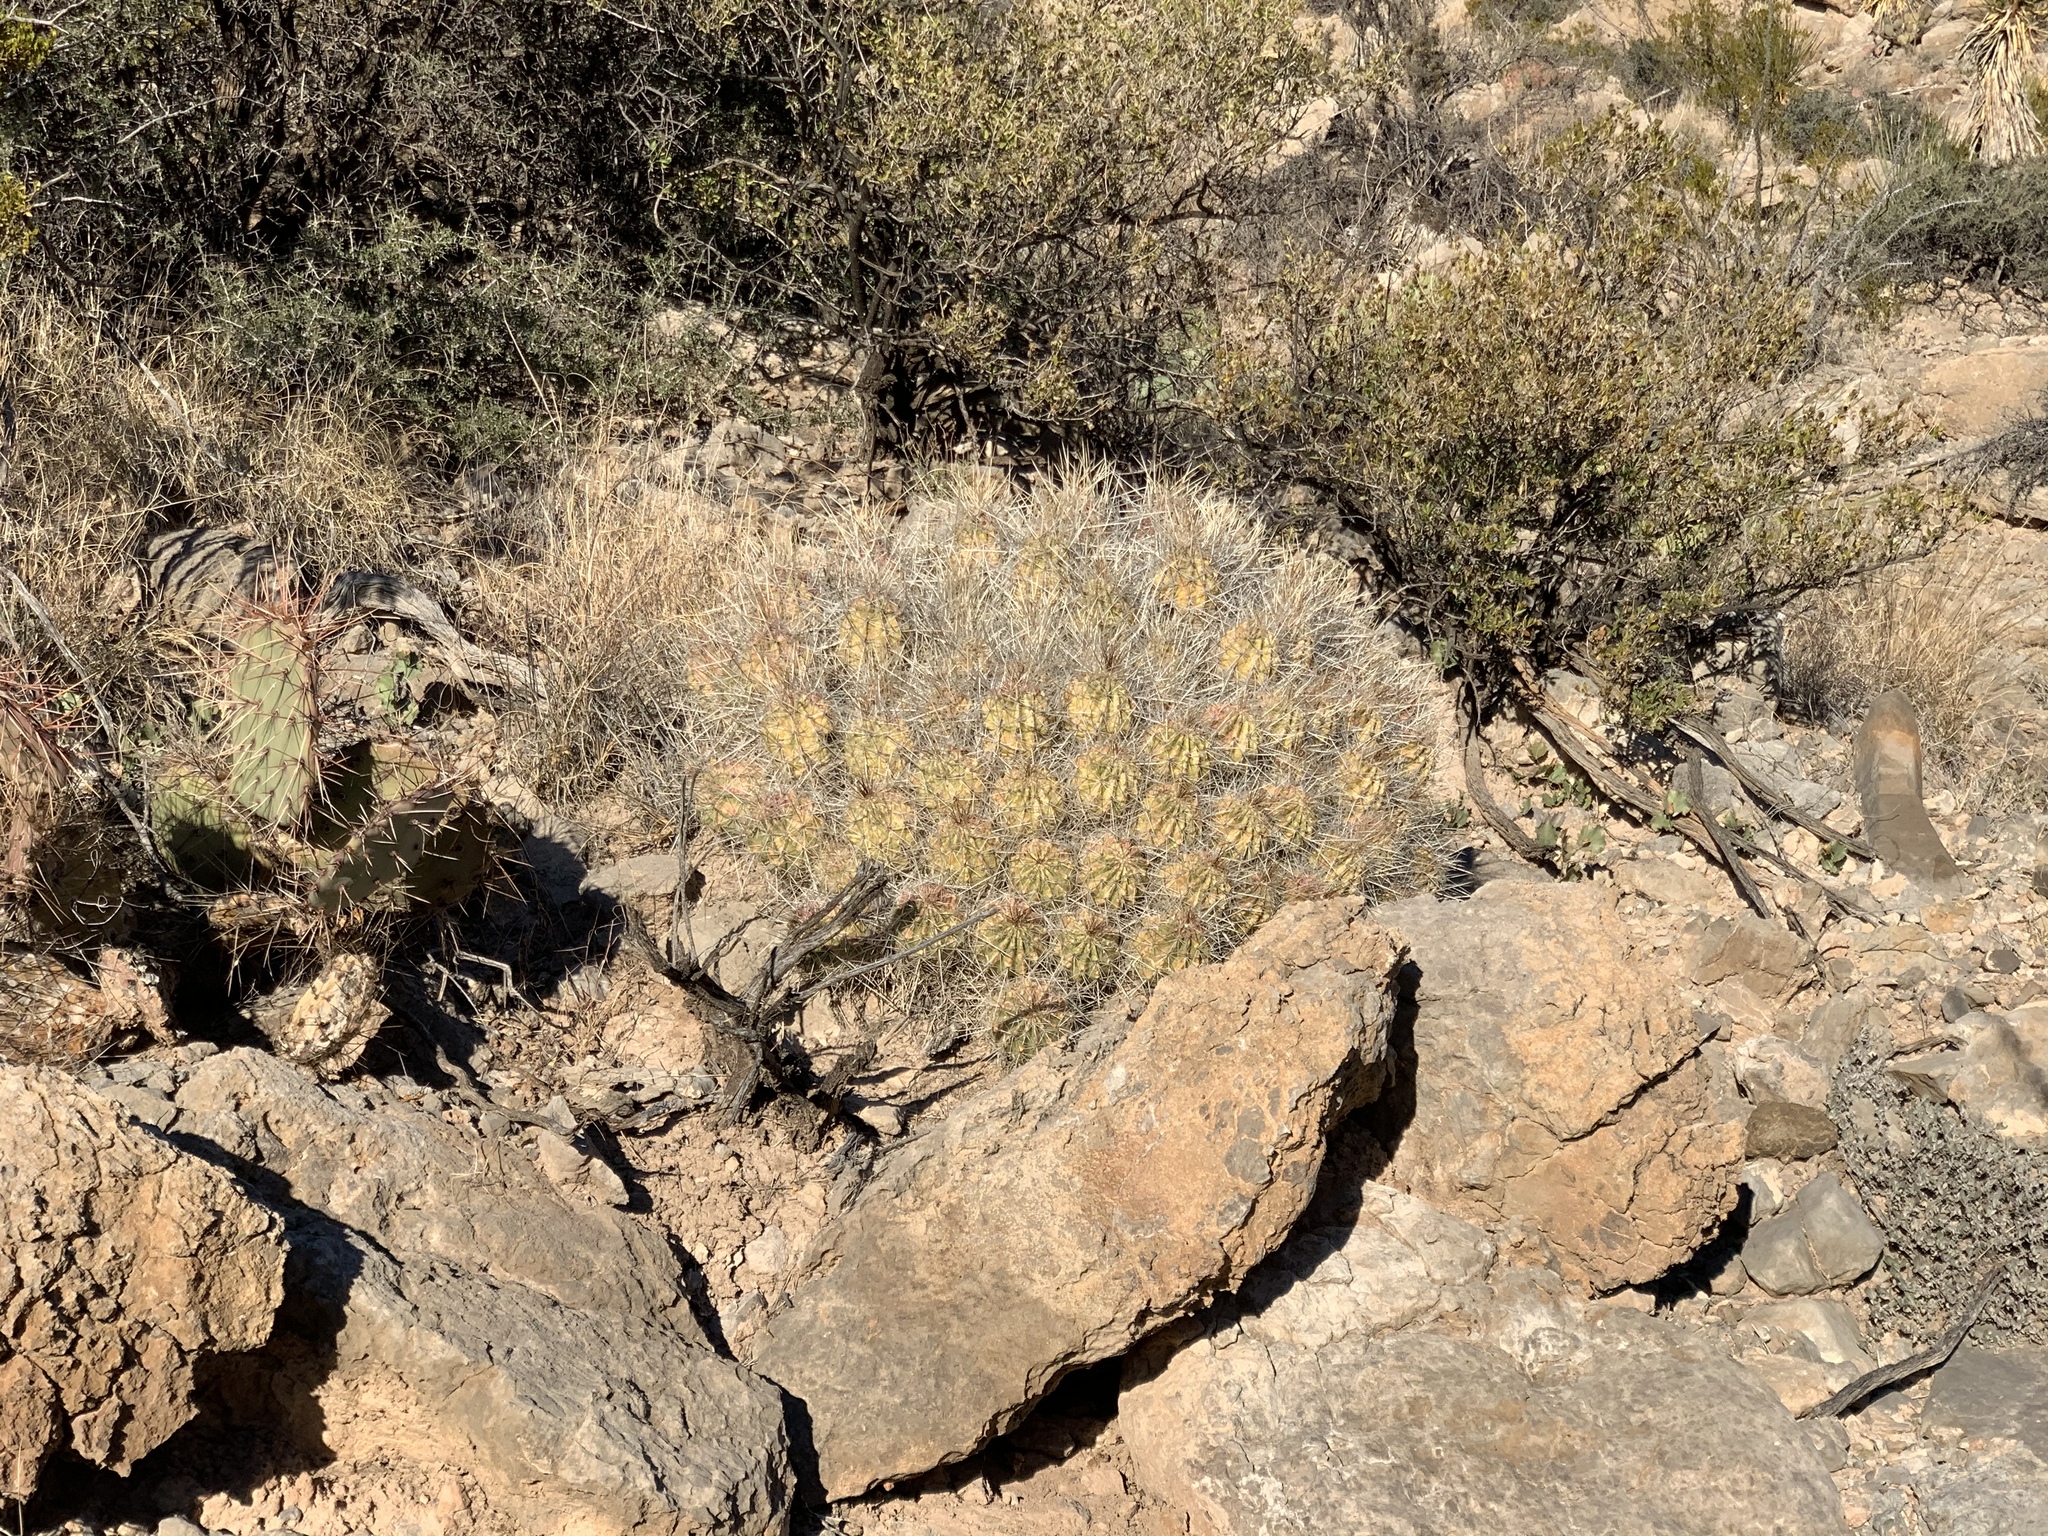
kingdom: Plantae
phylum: Tracheophyta
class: Magnoliopsida
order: Caryophyllales
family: Cactaceae
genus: Echinocereus
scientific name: Echinocereus stramineus
